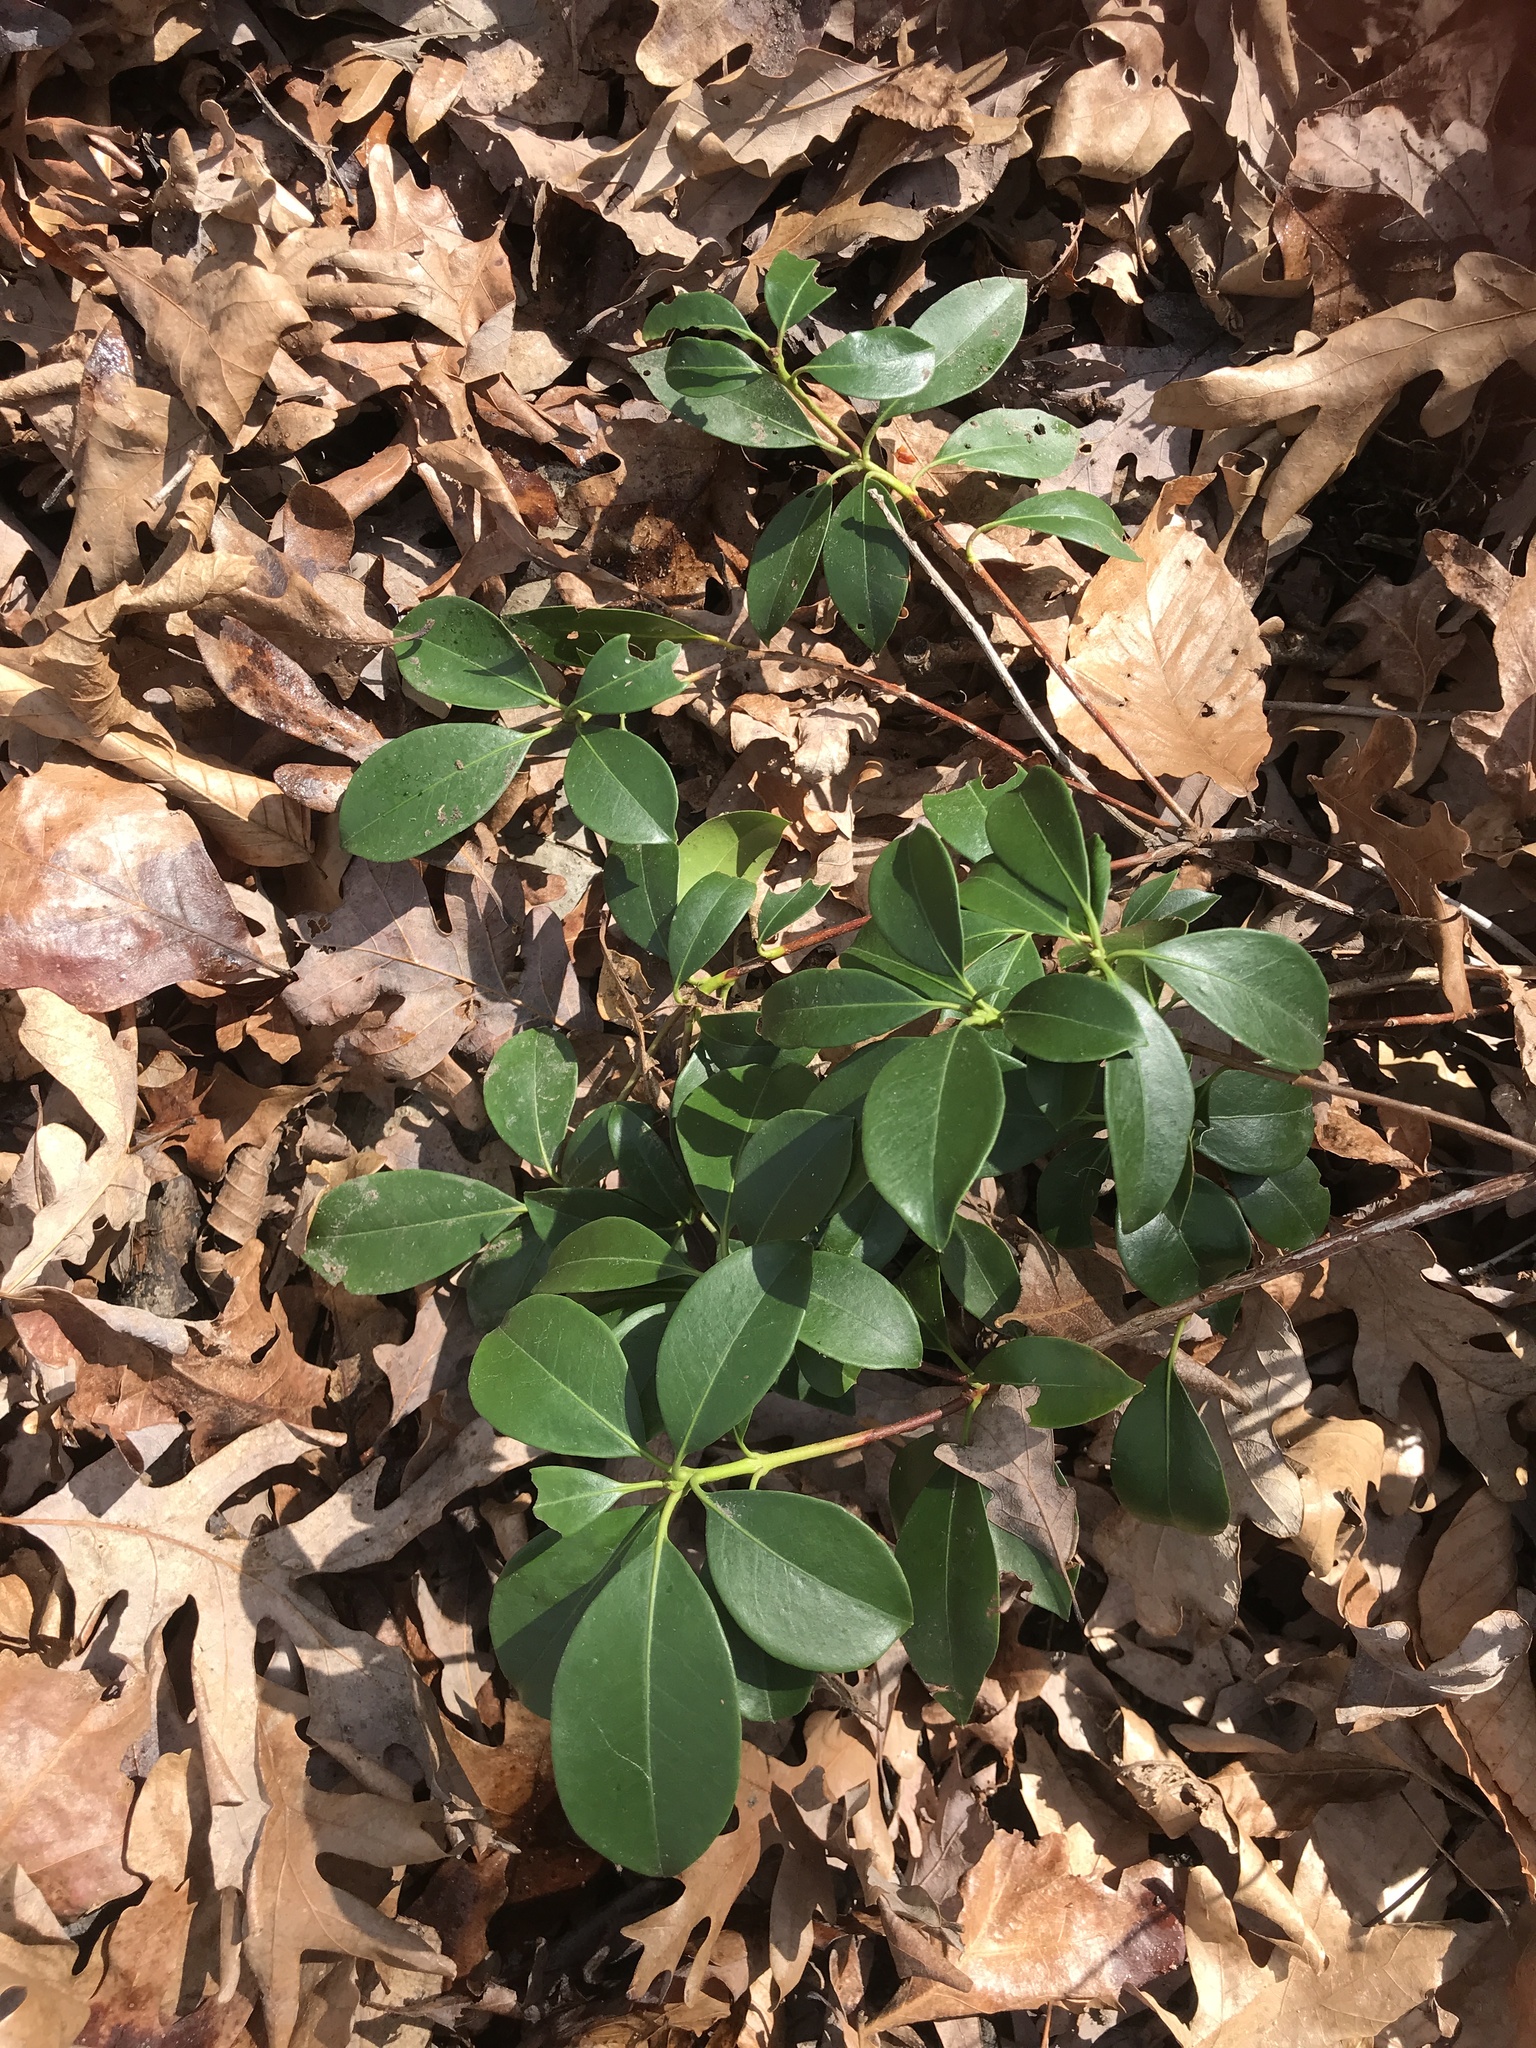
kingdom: Plantae
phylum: Tracheophyta
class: Magnoliopsida
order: Ericales
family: Ericaceae
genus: Kalmia
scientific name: Kalmia latifolia
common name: Mountain-laurel
